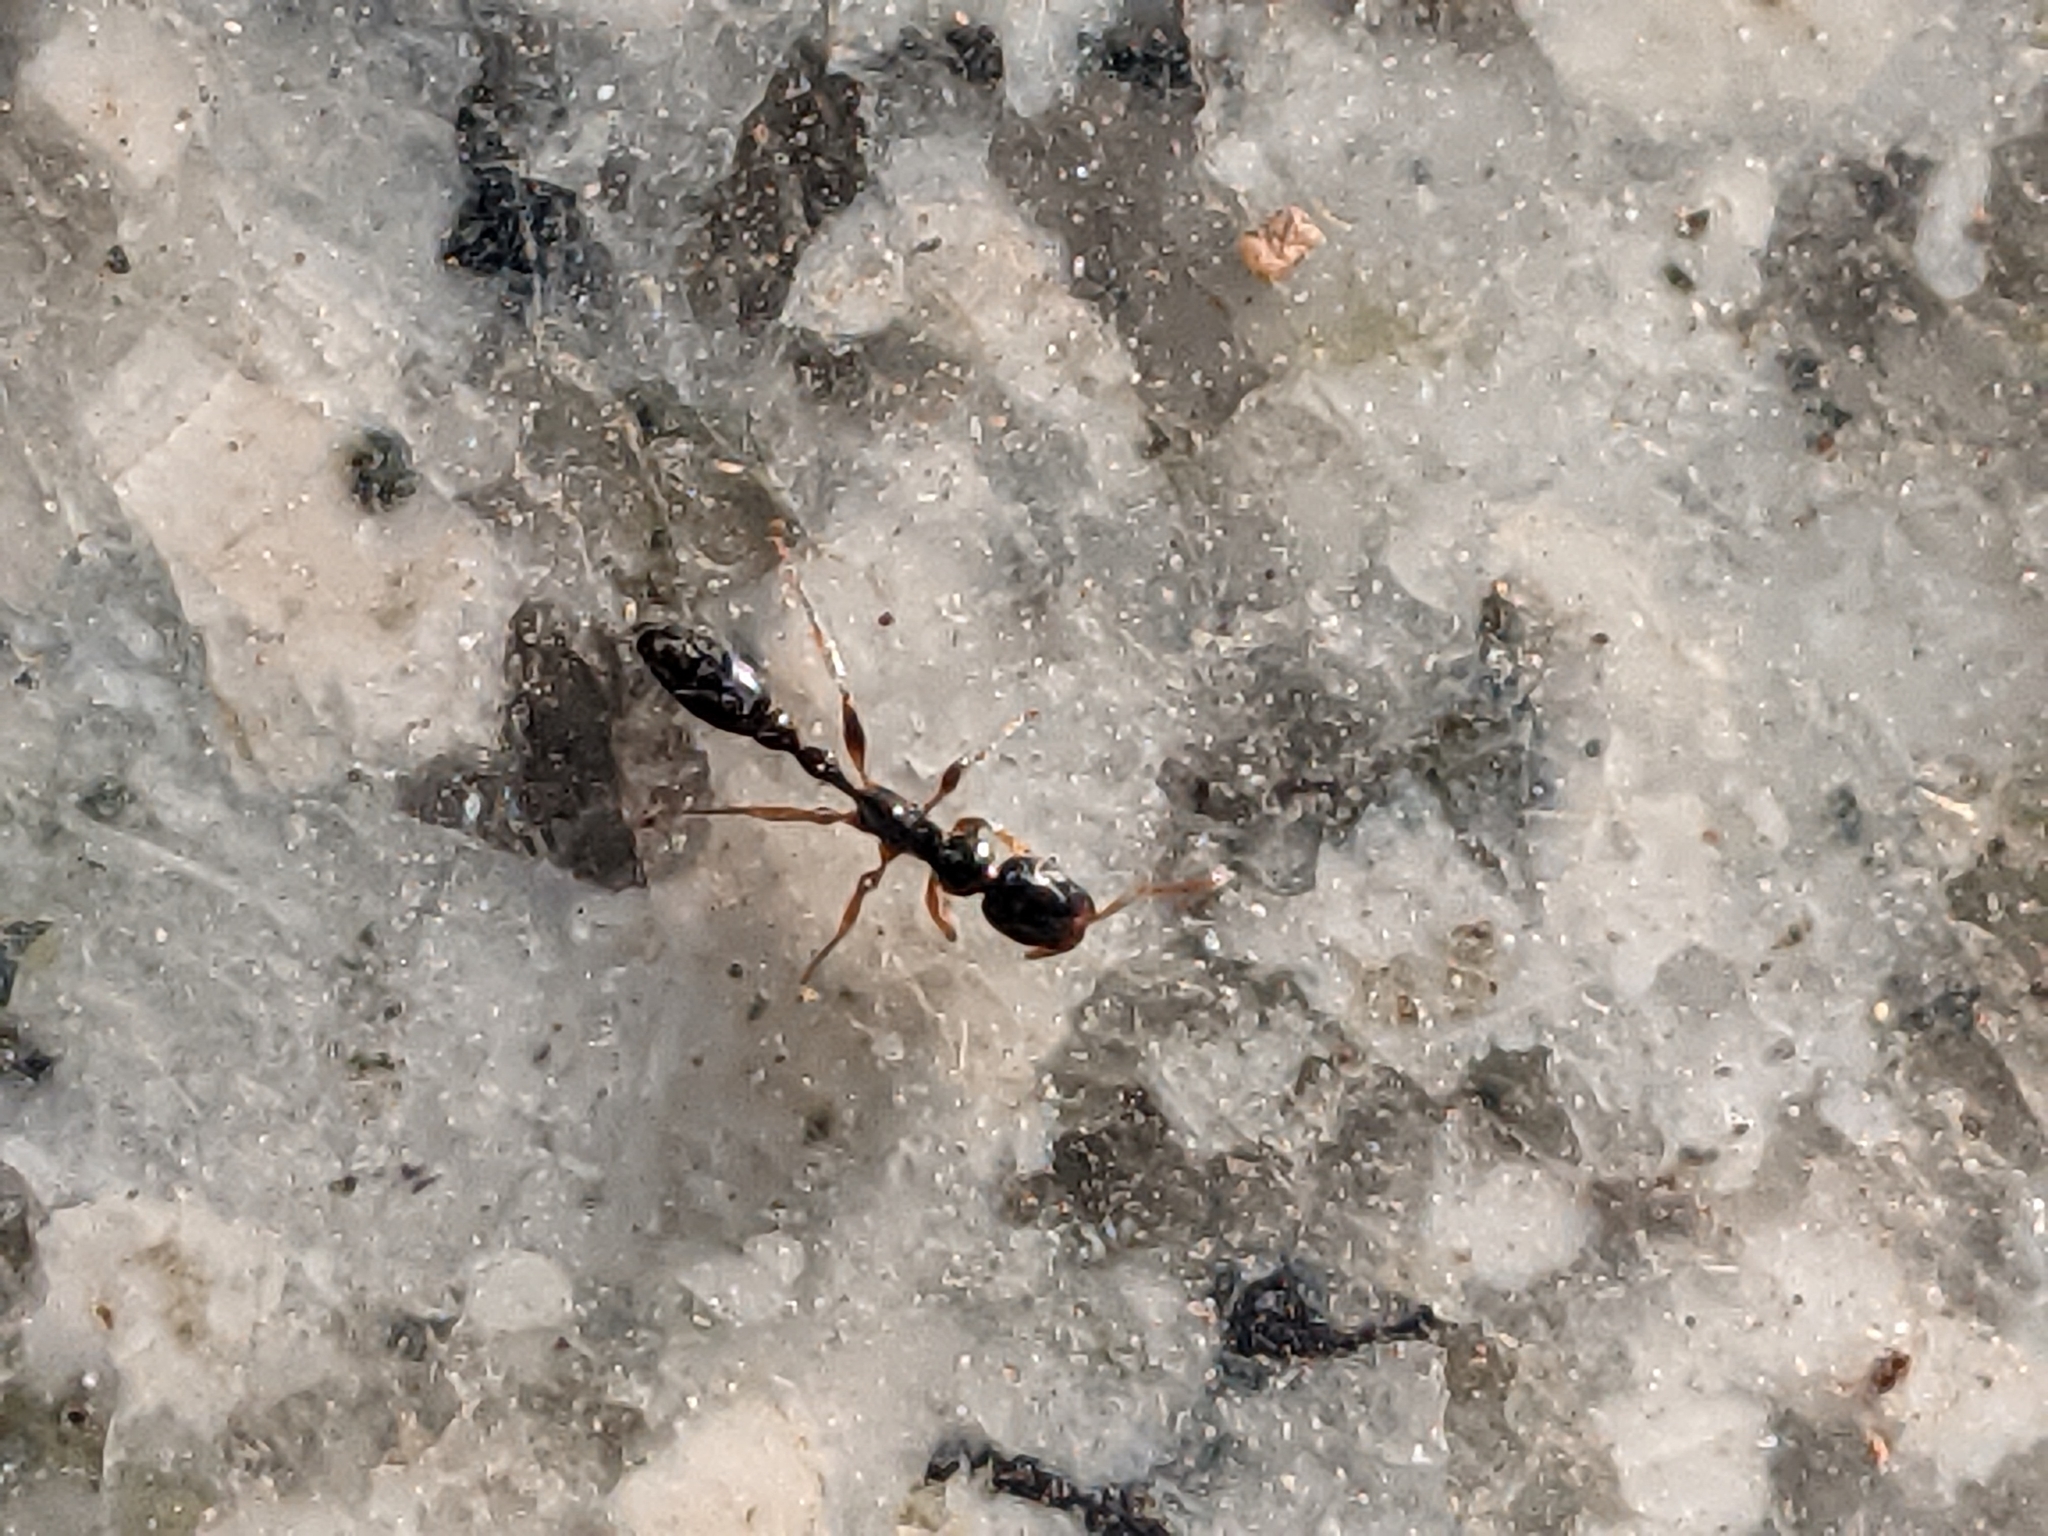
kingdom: Animalia
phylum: Arthropoda
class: Insecta
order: Hymenoptera
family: Formicidae
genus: Tetraponera
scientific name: Tetraponera allaborans
